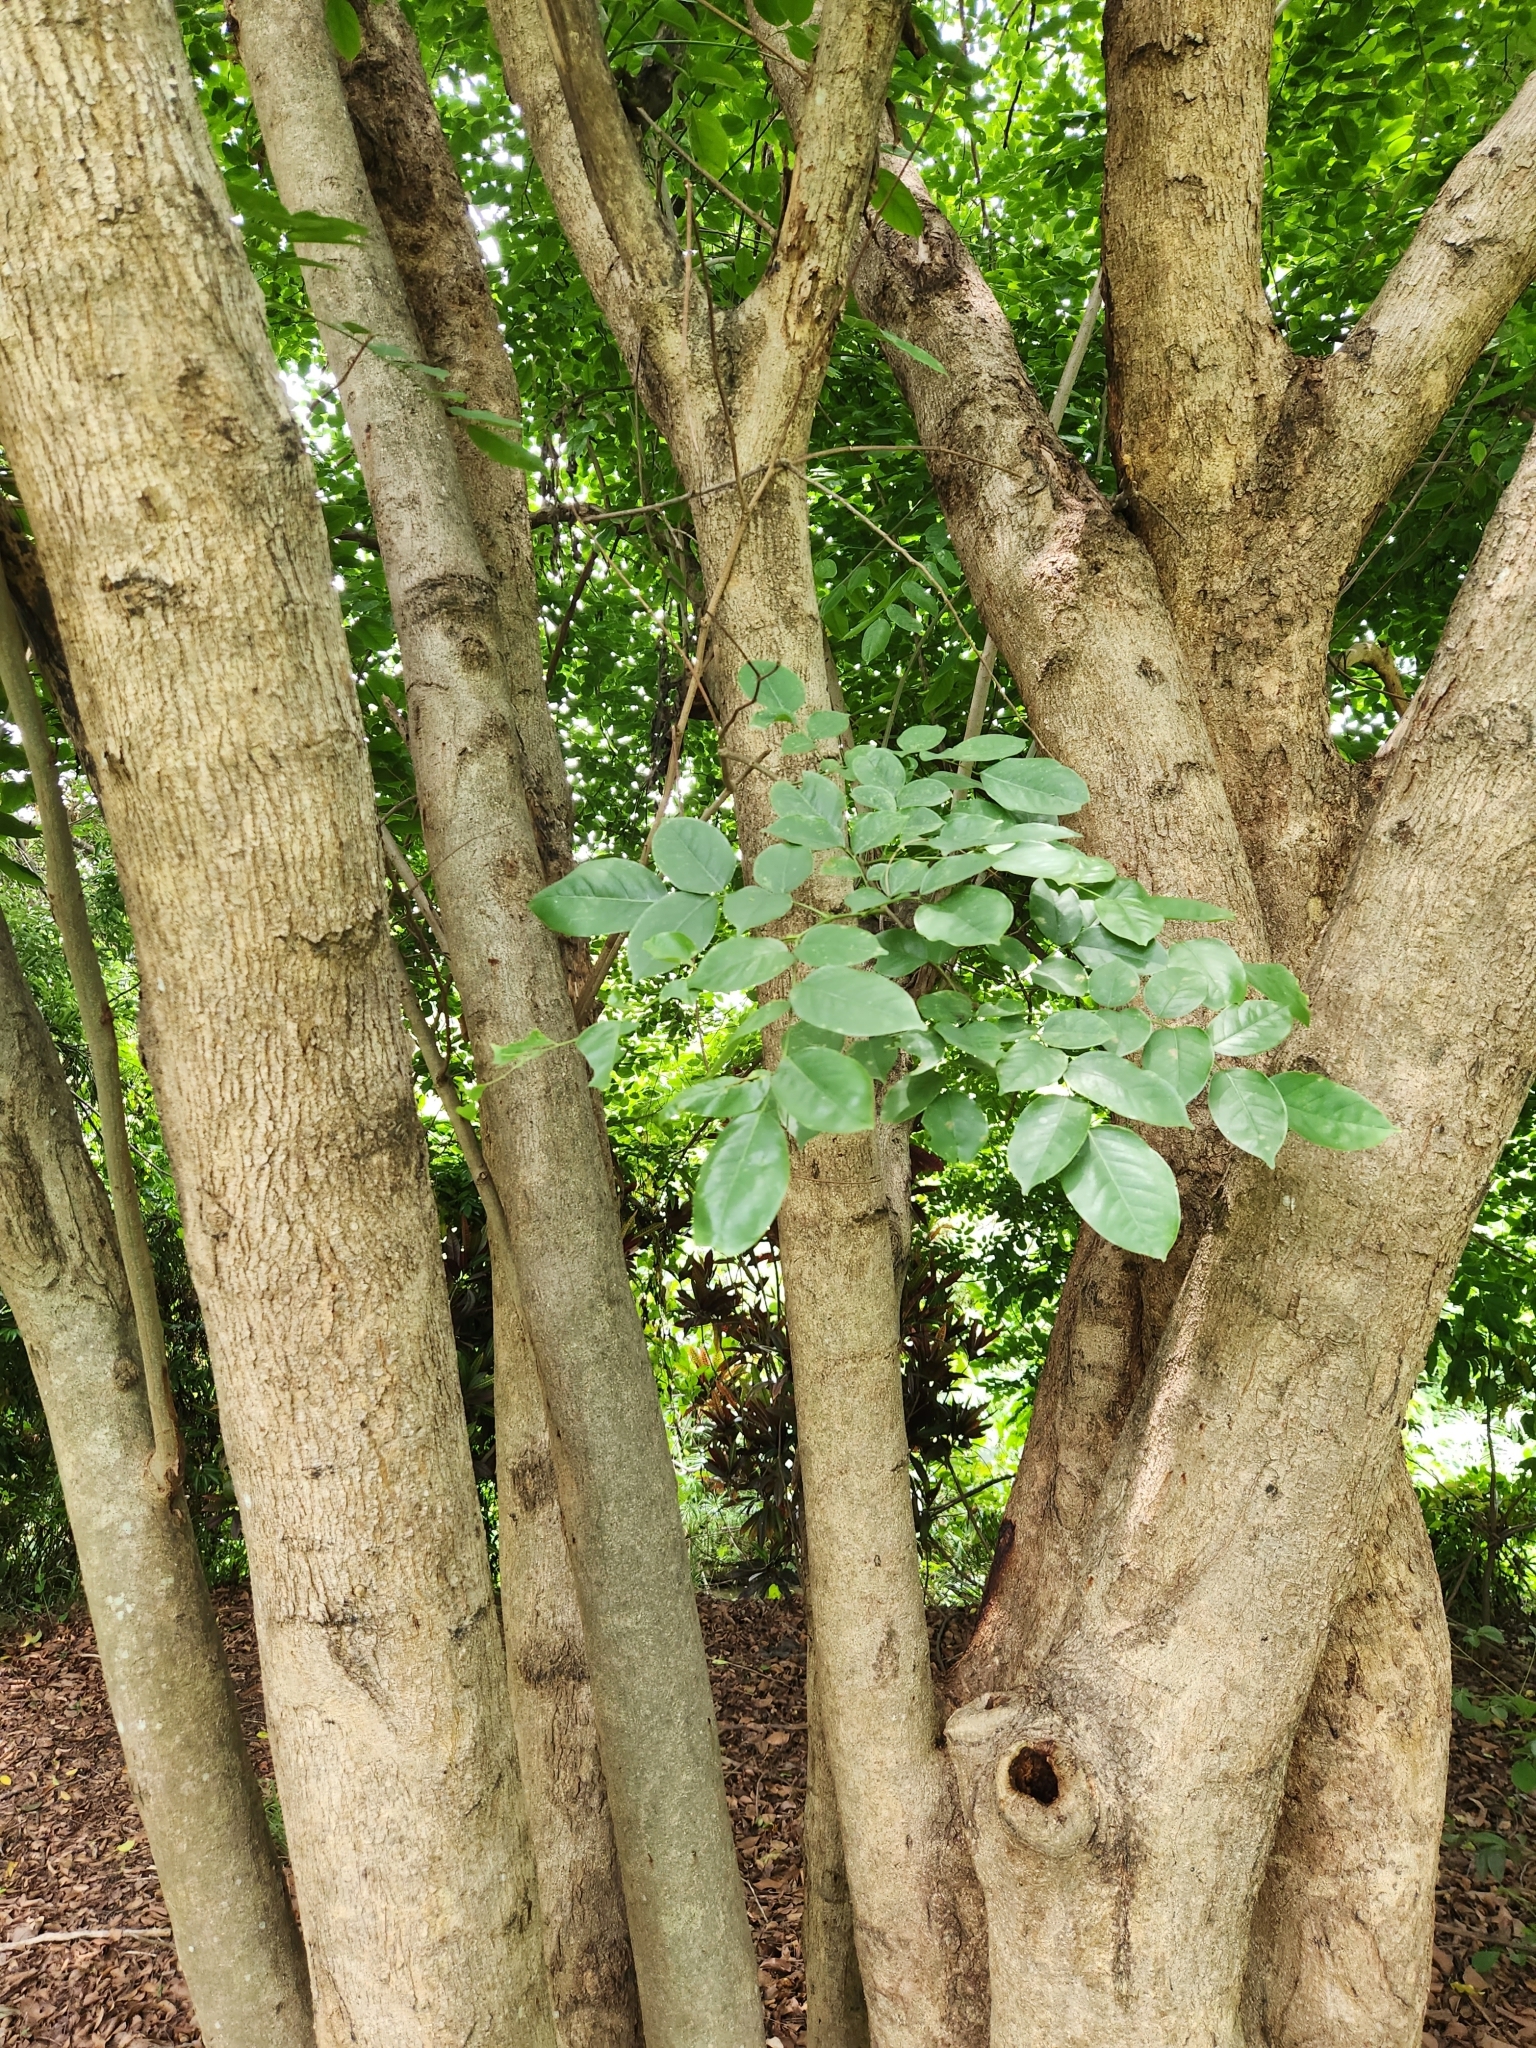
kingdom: Plantae
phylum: Tracheophyta
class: Magnoliopsida
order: Boraginales
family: Ehretiaceae
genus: Ehretia
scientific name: Ehretia acuminata
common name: Kodo wood
